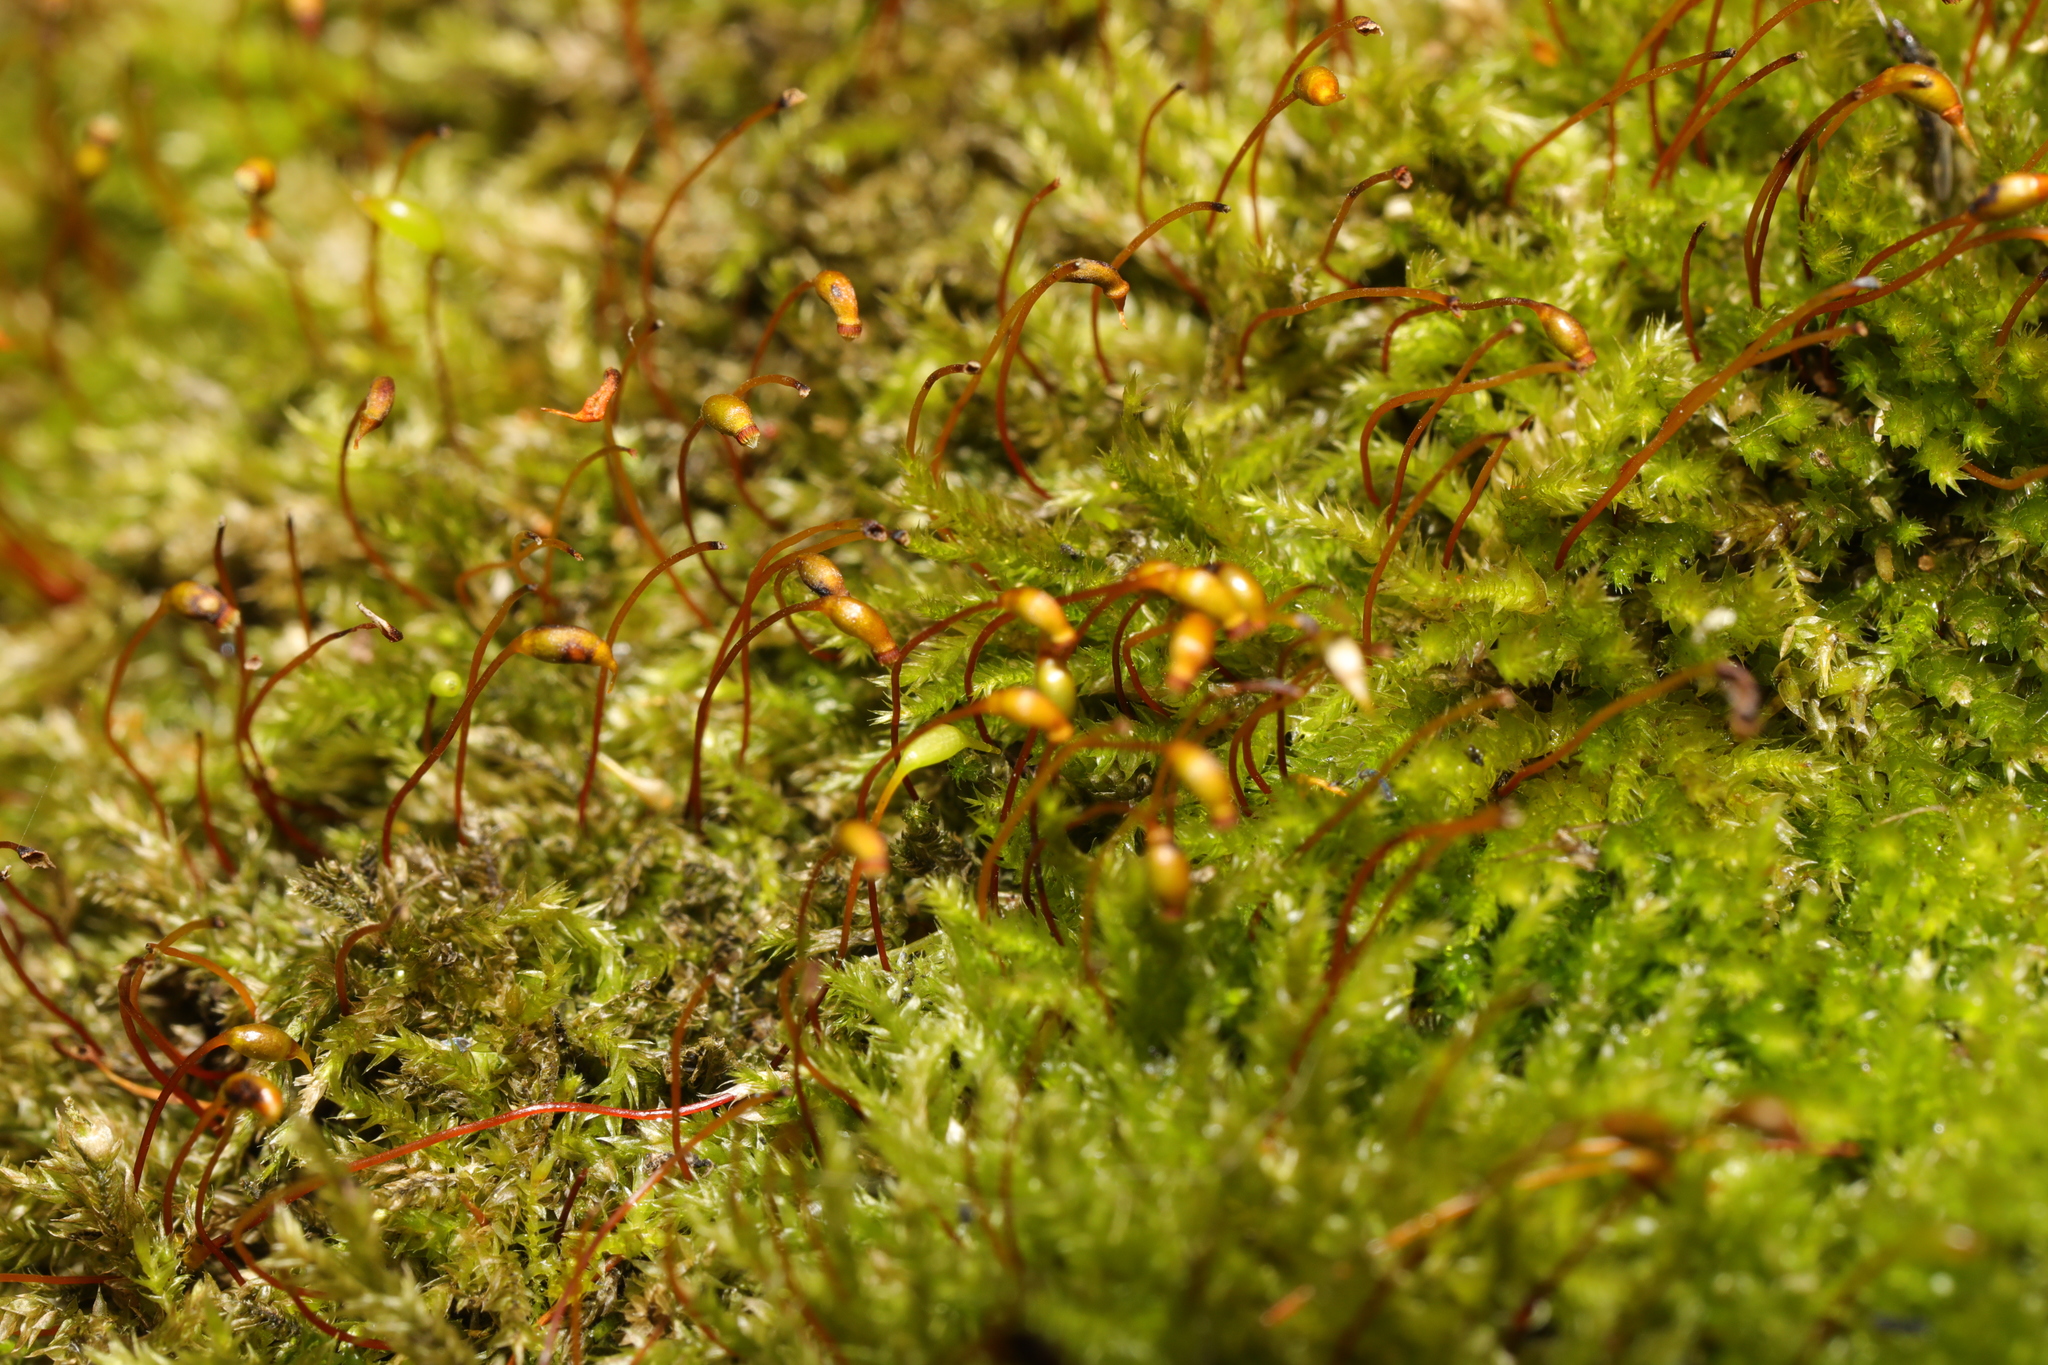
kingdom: Plantae
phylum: Bryophyta
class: Bryopsida
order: Hypnales
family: Brachytheciaceae
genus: Brachythecium
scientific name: Brachythecium rutabulum
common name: Rough-stalked feather-moss
